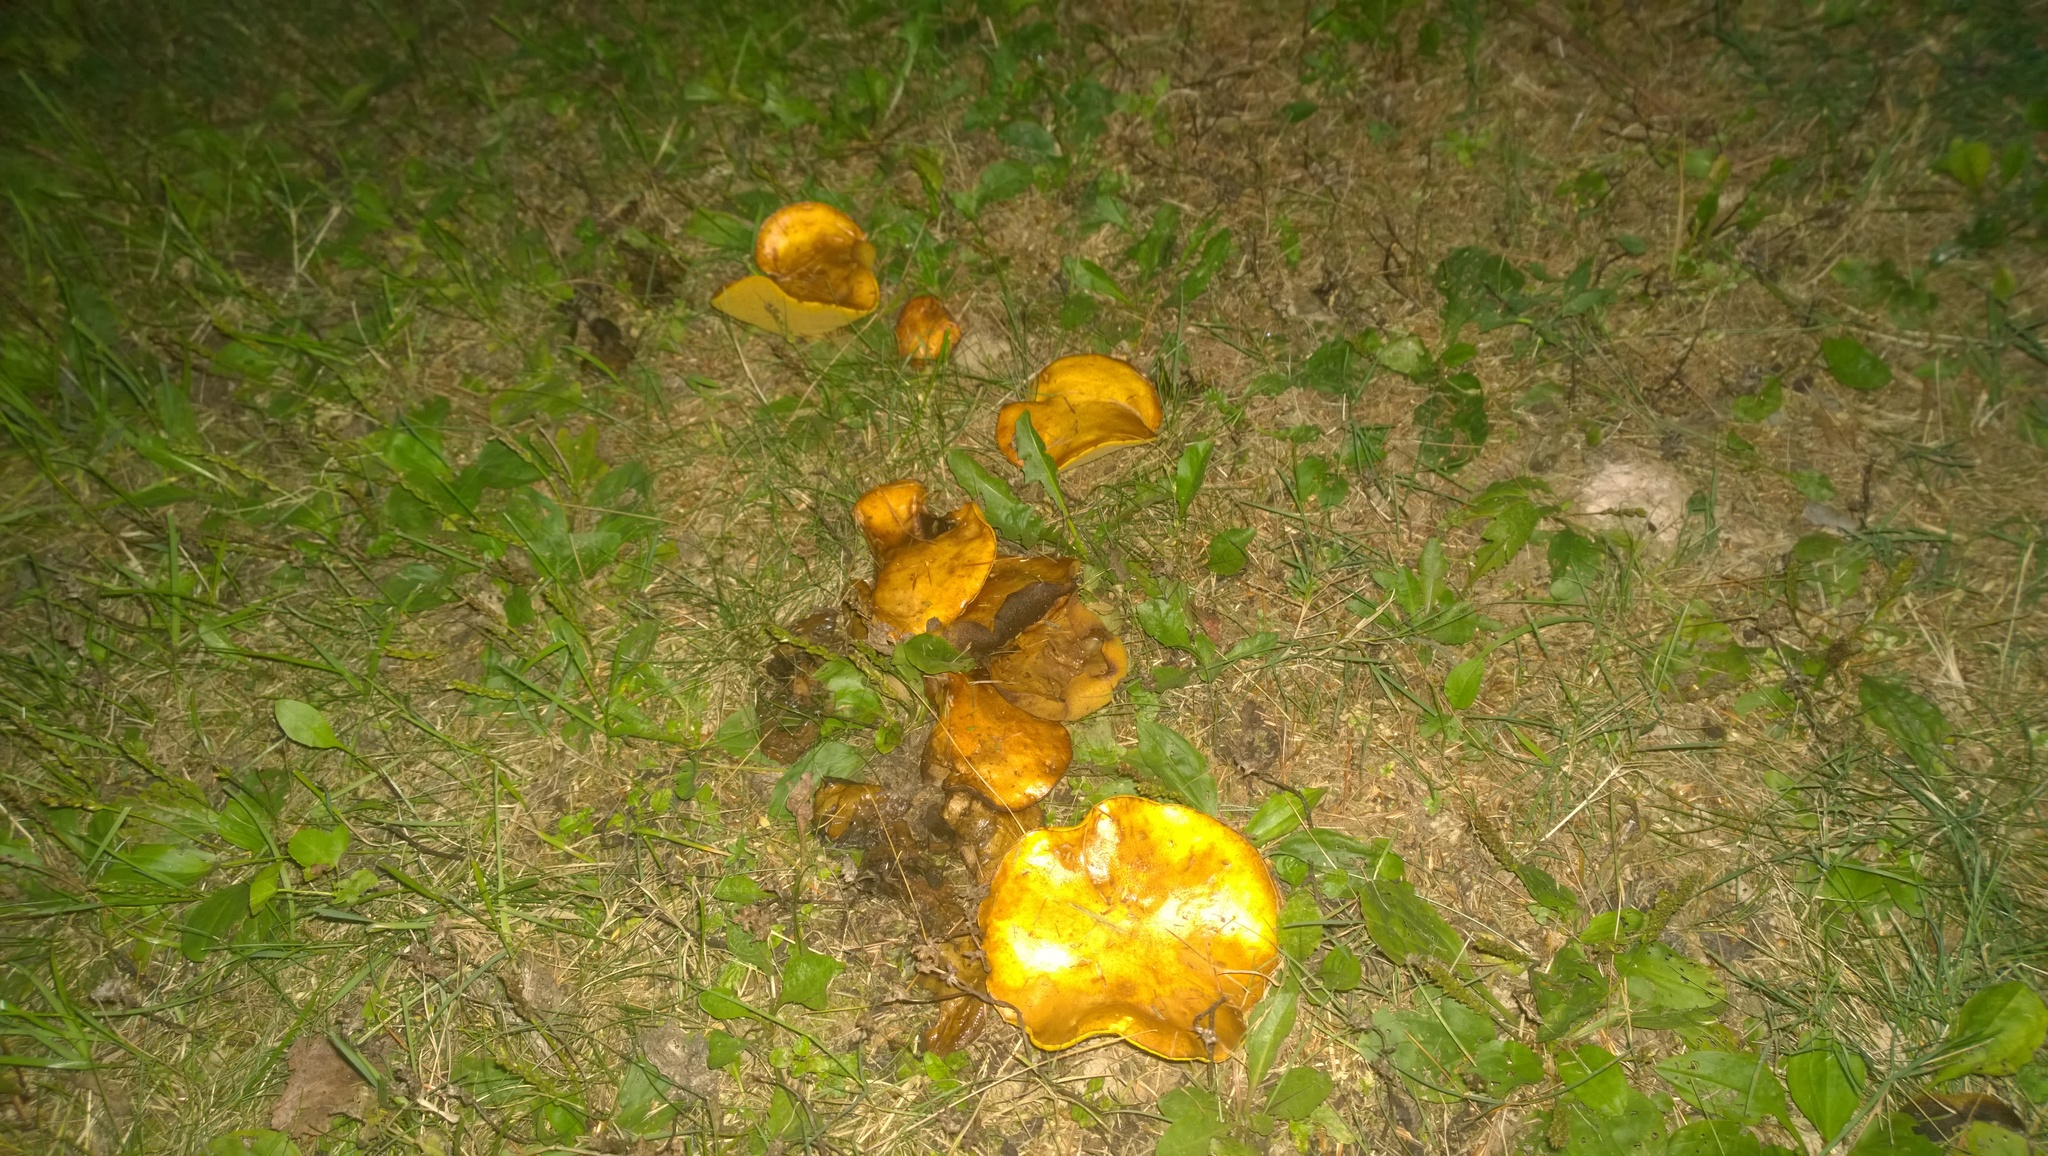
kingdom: Fungi
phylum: Basidiomycota
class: Agaricomycetes
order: Boletales
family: Suillaceae
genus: Suillus
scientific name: Suillus brevipes
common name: Short-stalked suillus
